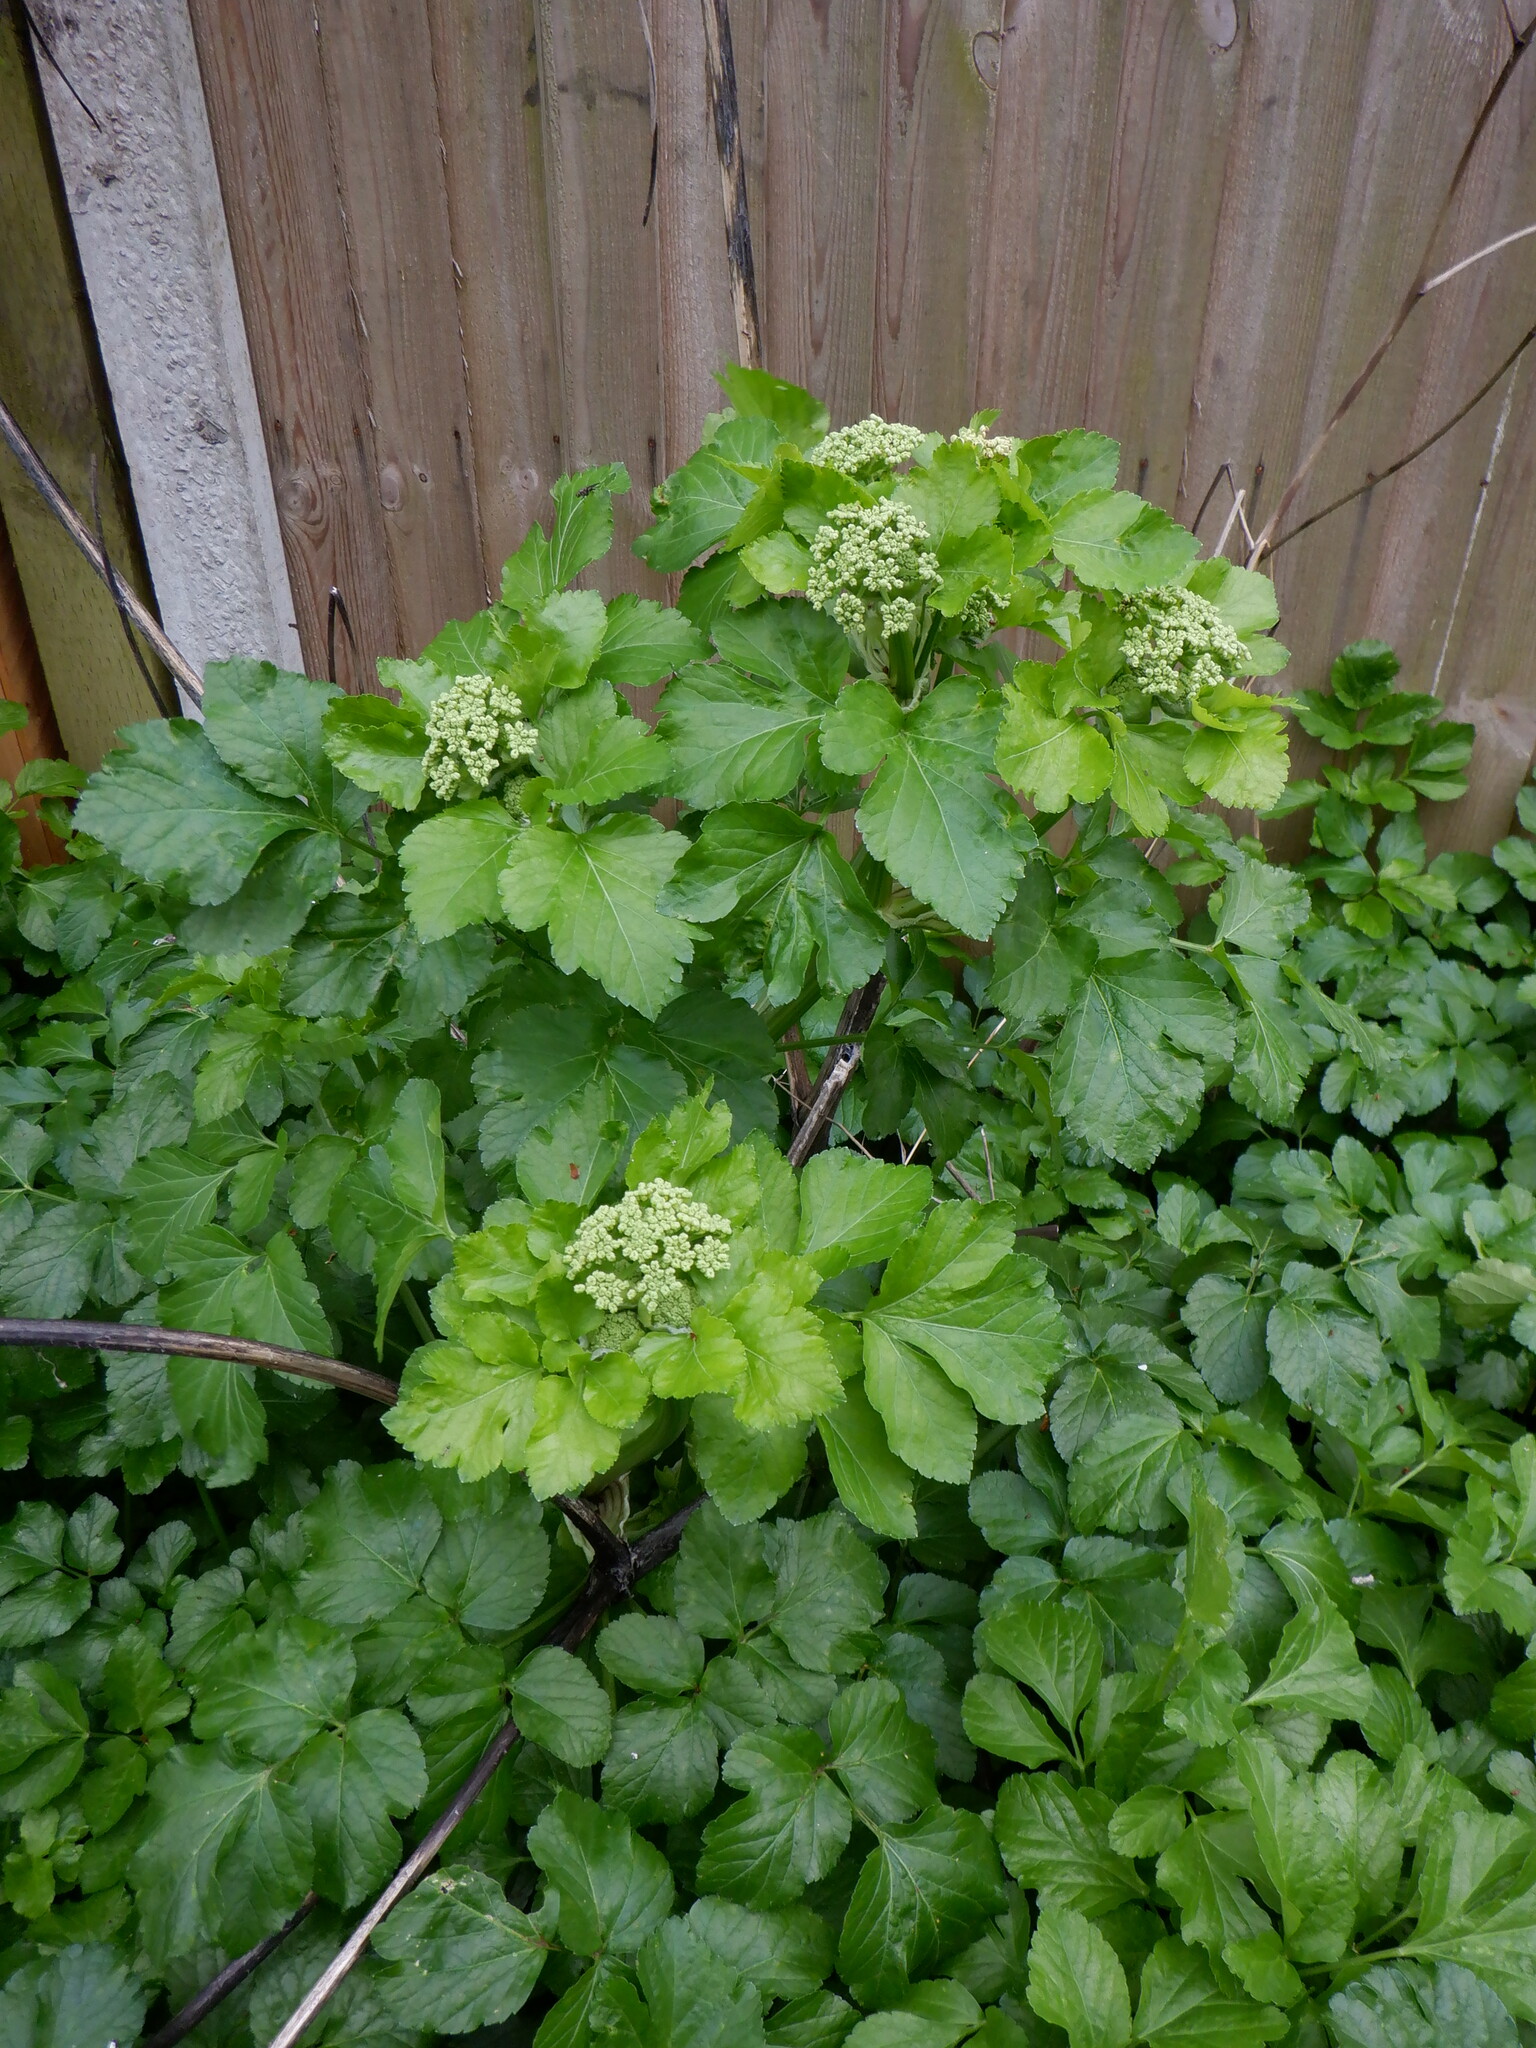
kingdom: Plantae
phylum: Tracheophyta
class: Magnoliopsida
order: Apiales
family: Apiaceae
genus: Smyrnium
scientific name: Smyrnium olusatrum
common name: Alexanders
